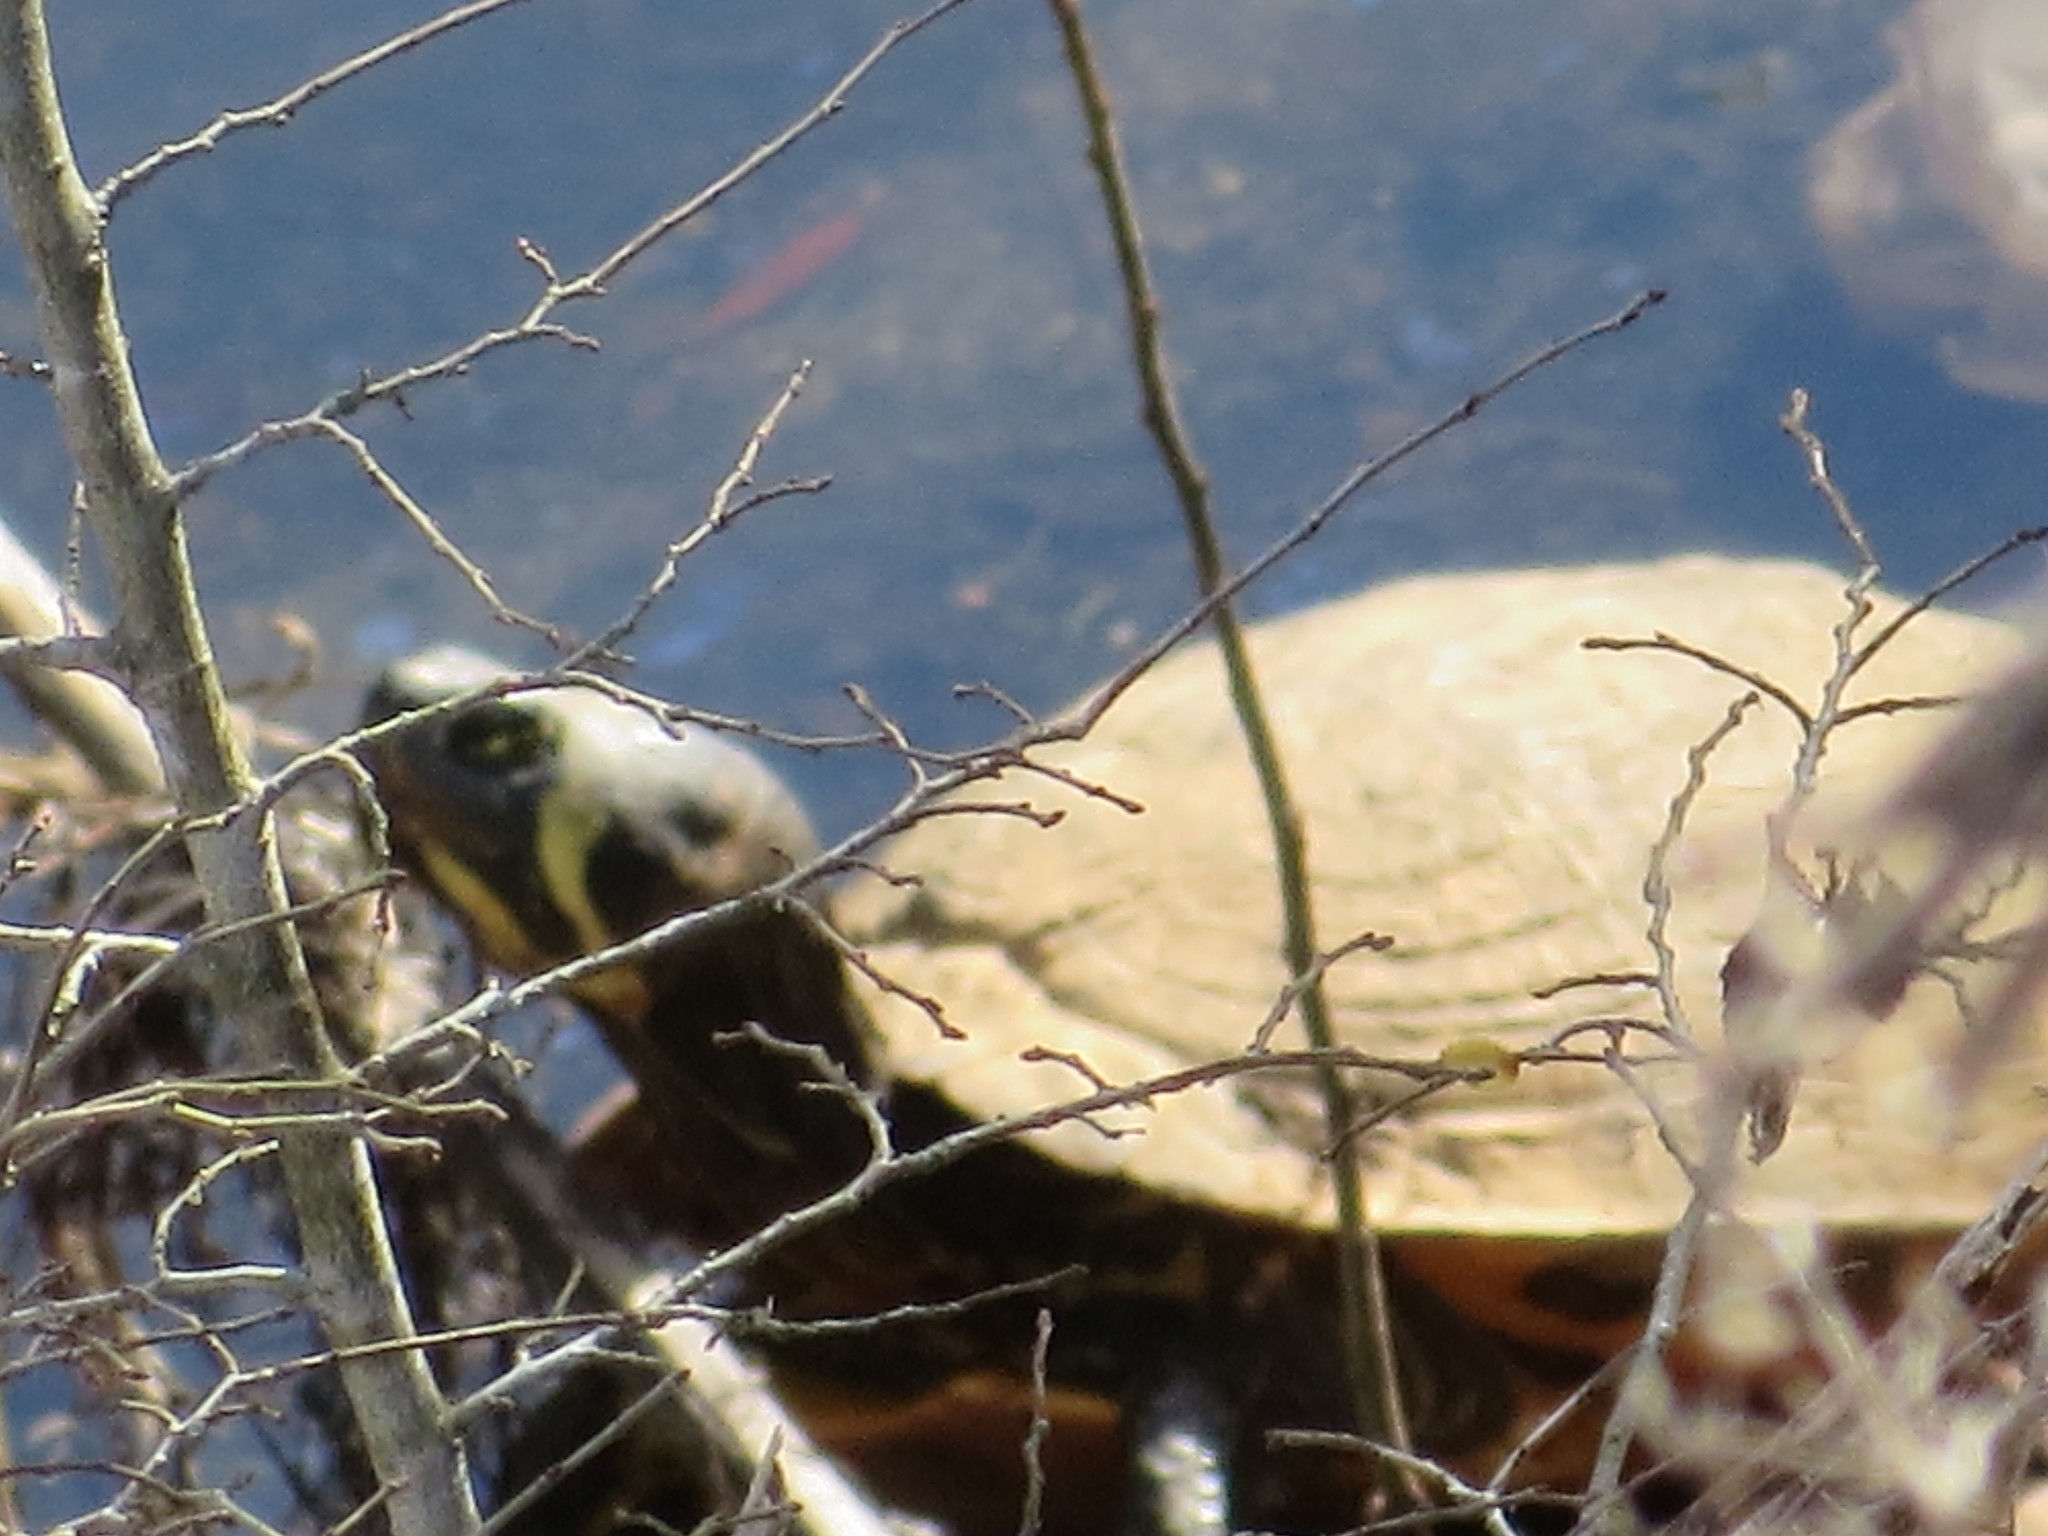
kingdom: Animalia
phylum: Chordata
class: Testudines
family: Emydidae
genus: Trachemys
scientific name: Trachemys scripta
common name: Slider
